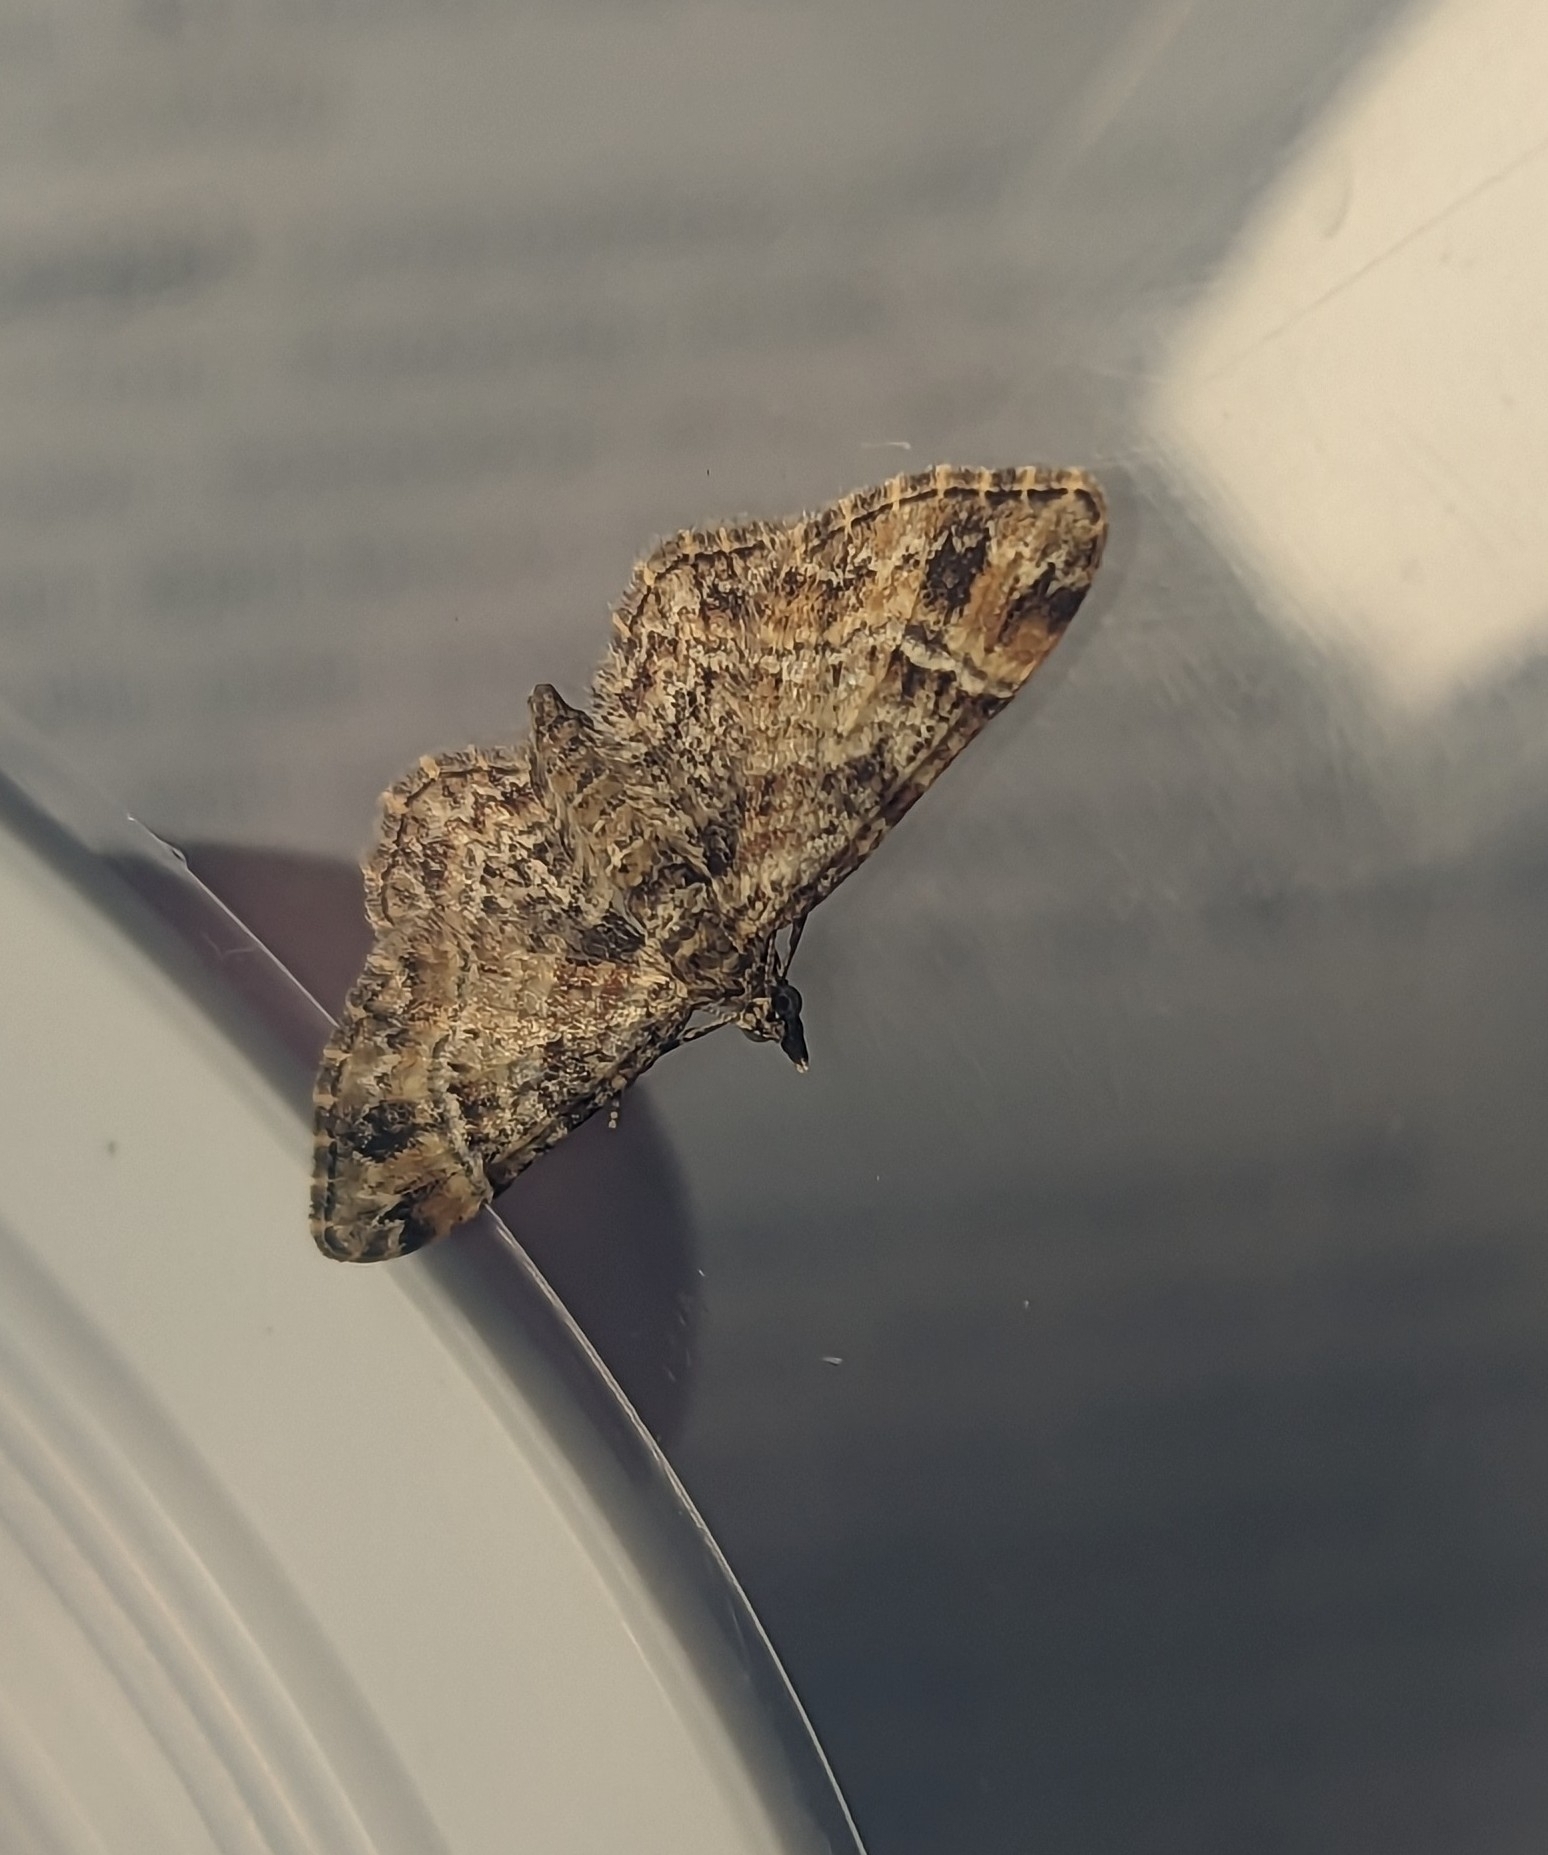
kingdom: Animalia
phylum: Arthropoda
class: Insecta
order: Lepidoptera
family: Geometridae
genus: Gymnoscelis
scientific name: Gymnoscelis rufifasciata
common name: Double-striped pug
